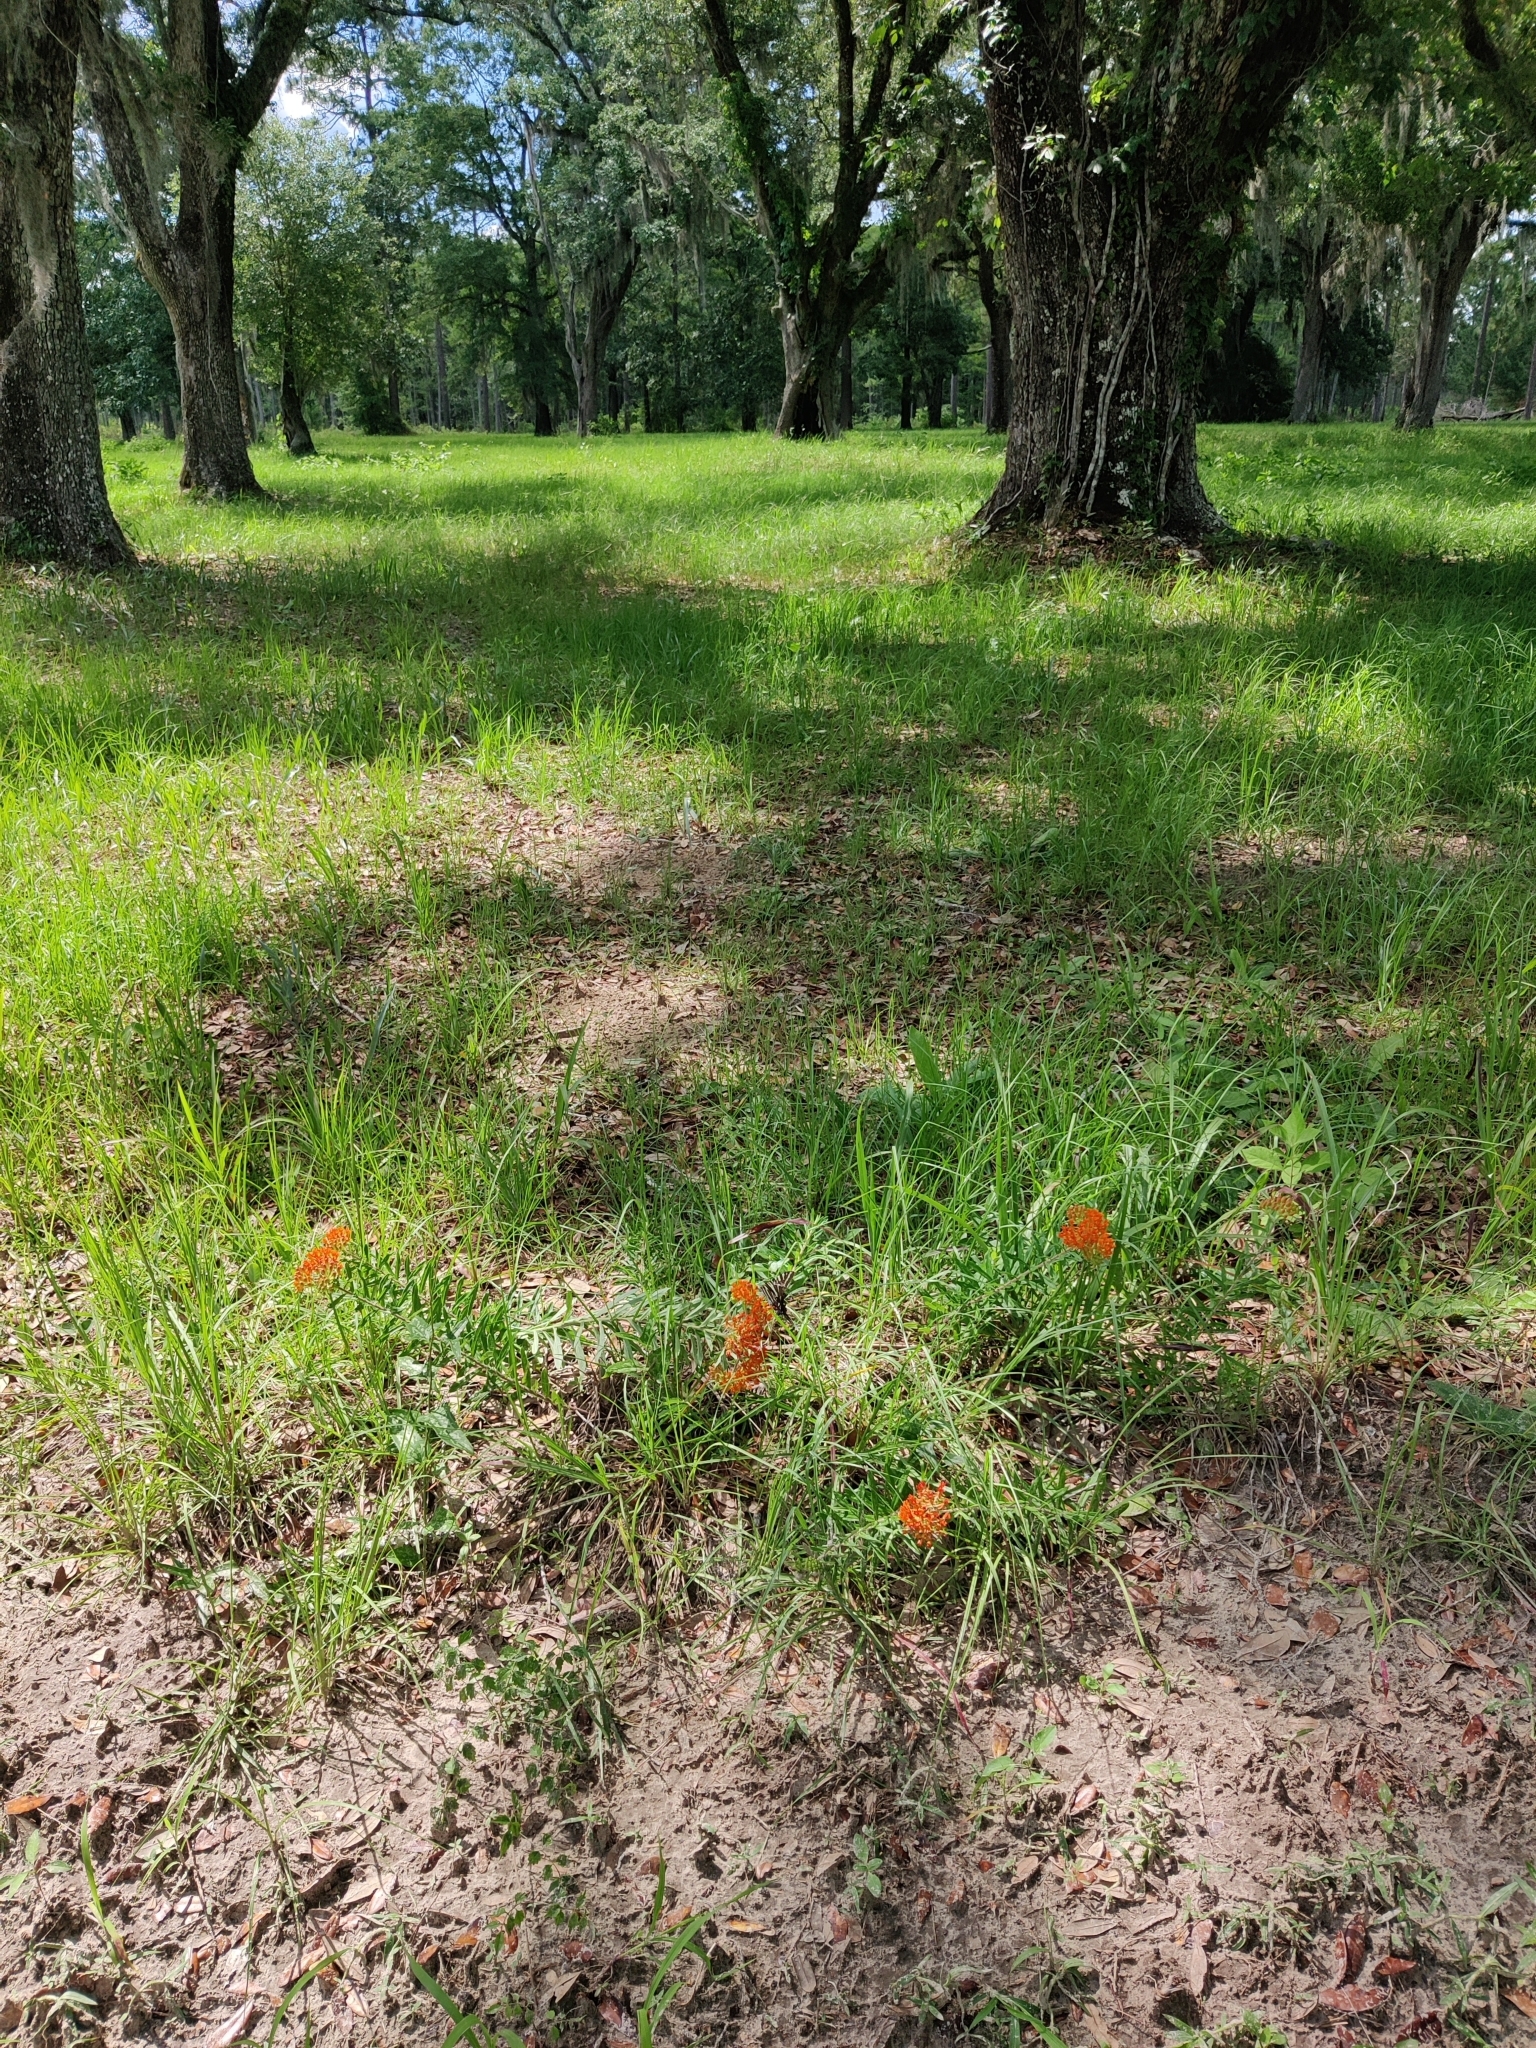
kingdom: Plantae
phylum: Tracheophyta
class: Magnoliopsida
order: Gentianales
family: Apocynaceae
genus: Asclepias
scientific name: Asclepias tuberosa
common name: Butterfly milkweed
